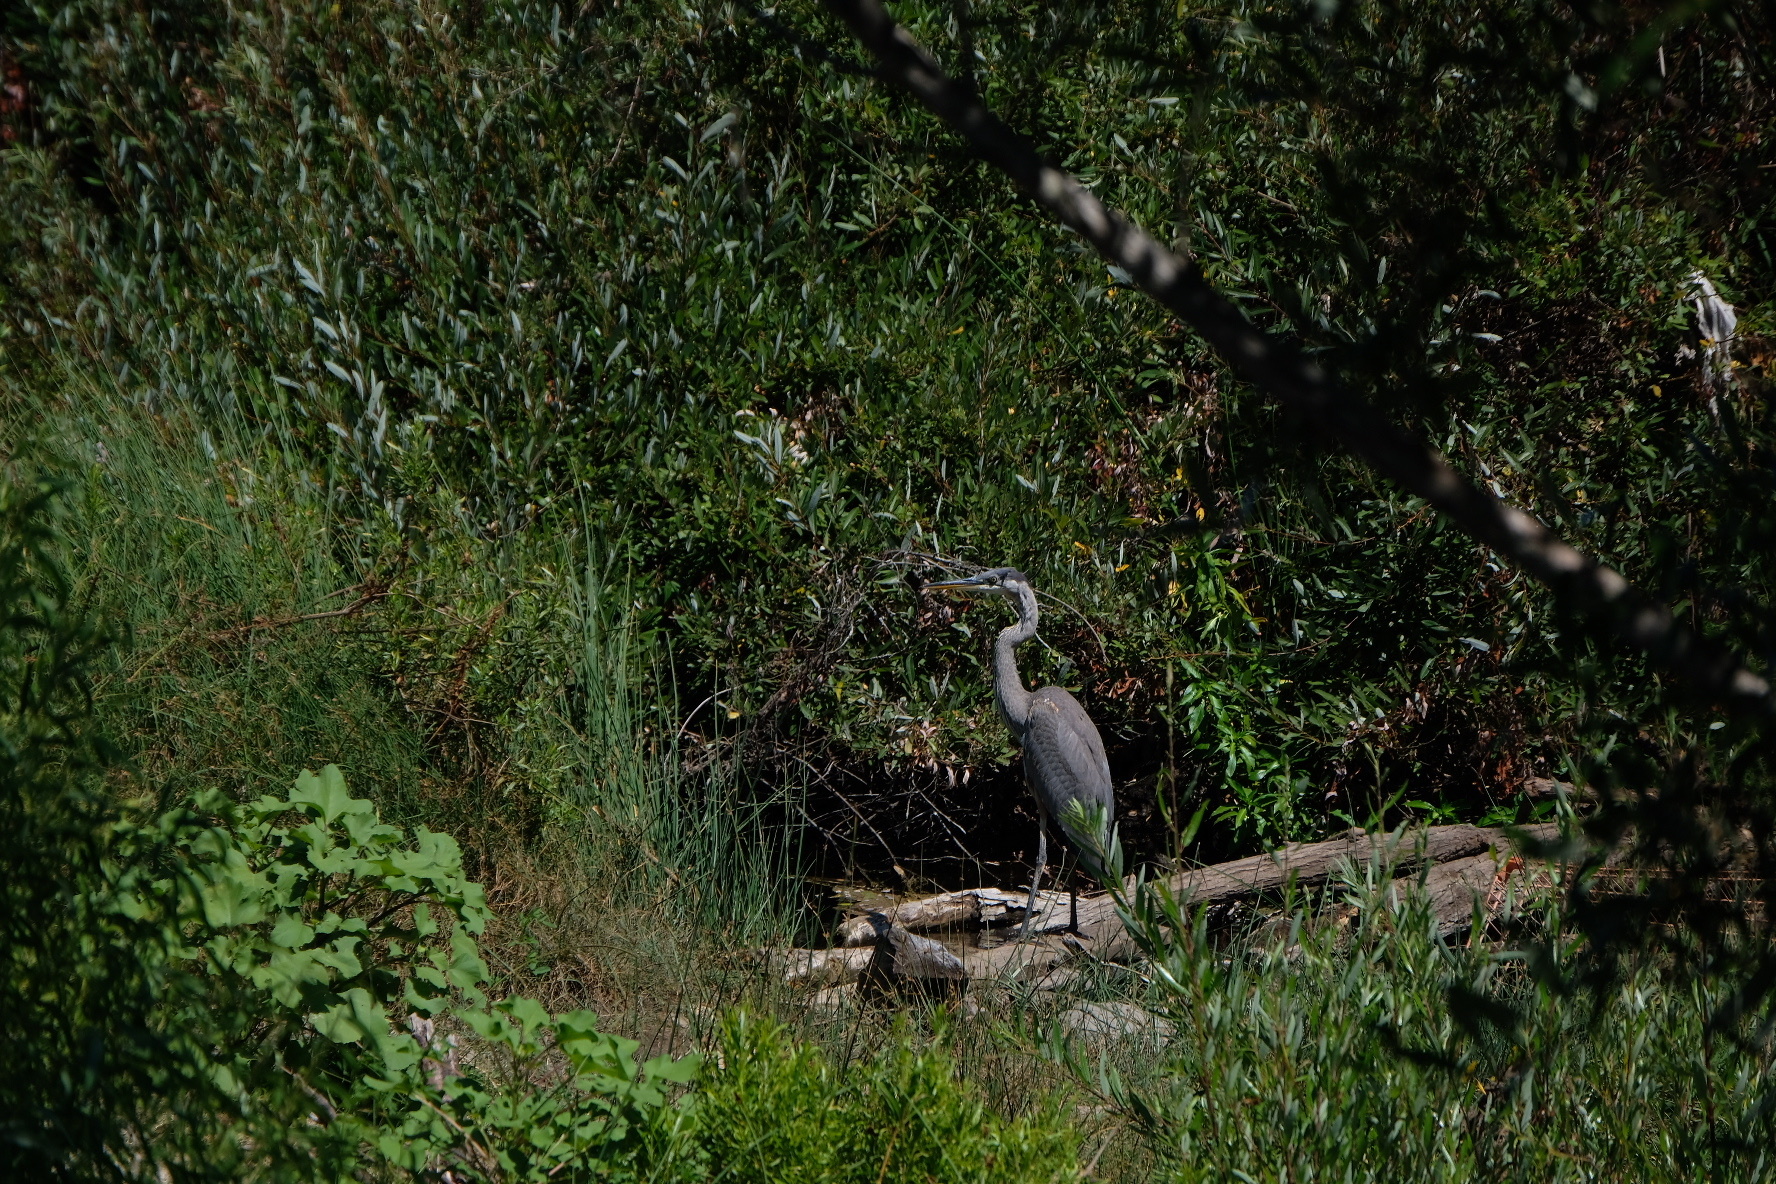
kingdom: Animalia
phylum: Chordata
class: Aves
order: Pelecaniformes
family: Ardeidae
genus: Ardea
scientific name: Ardea herodias
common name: Great blue heron
